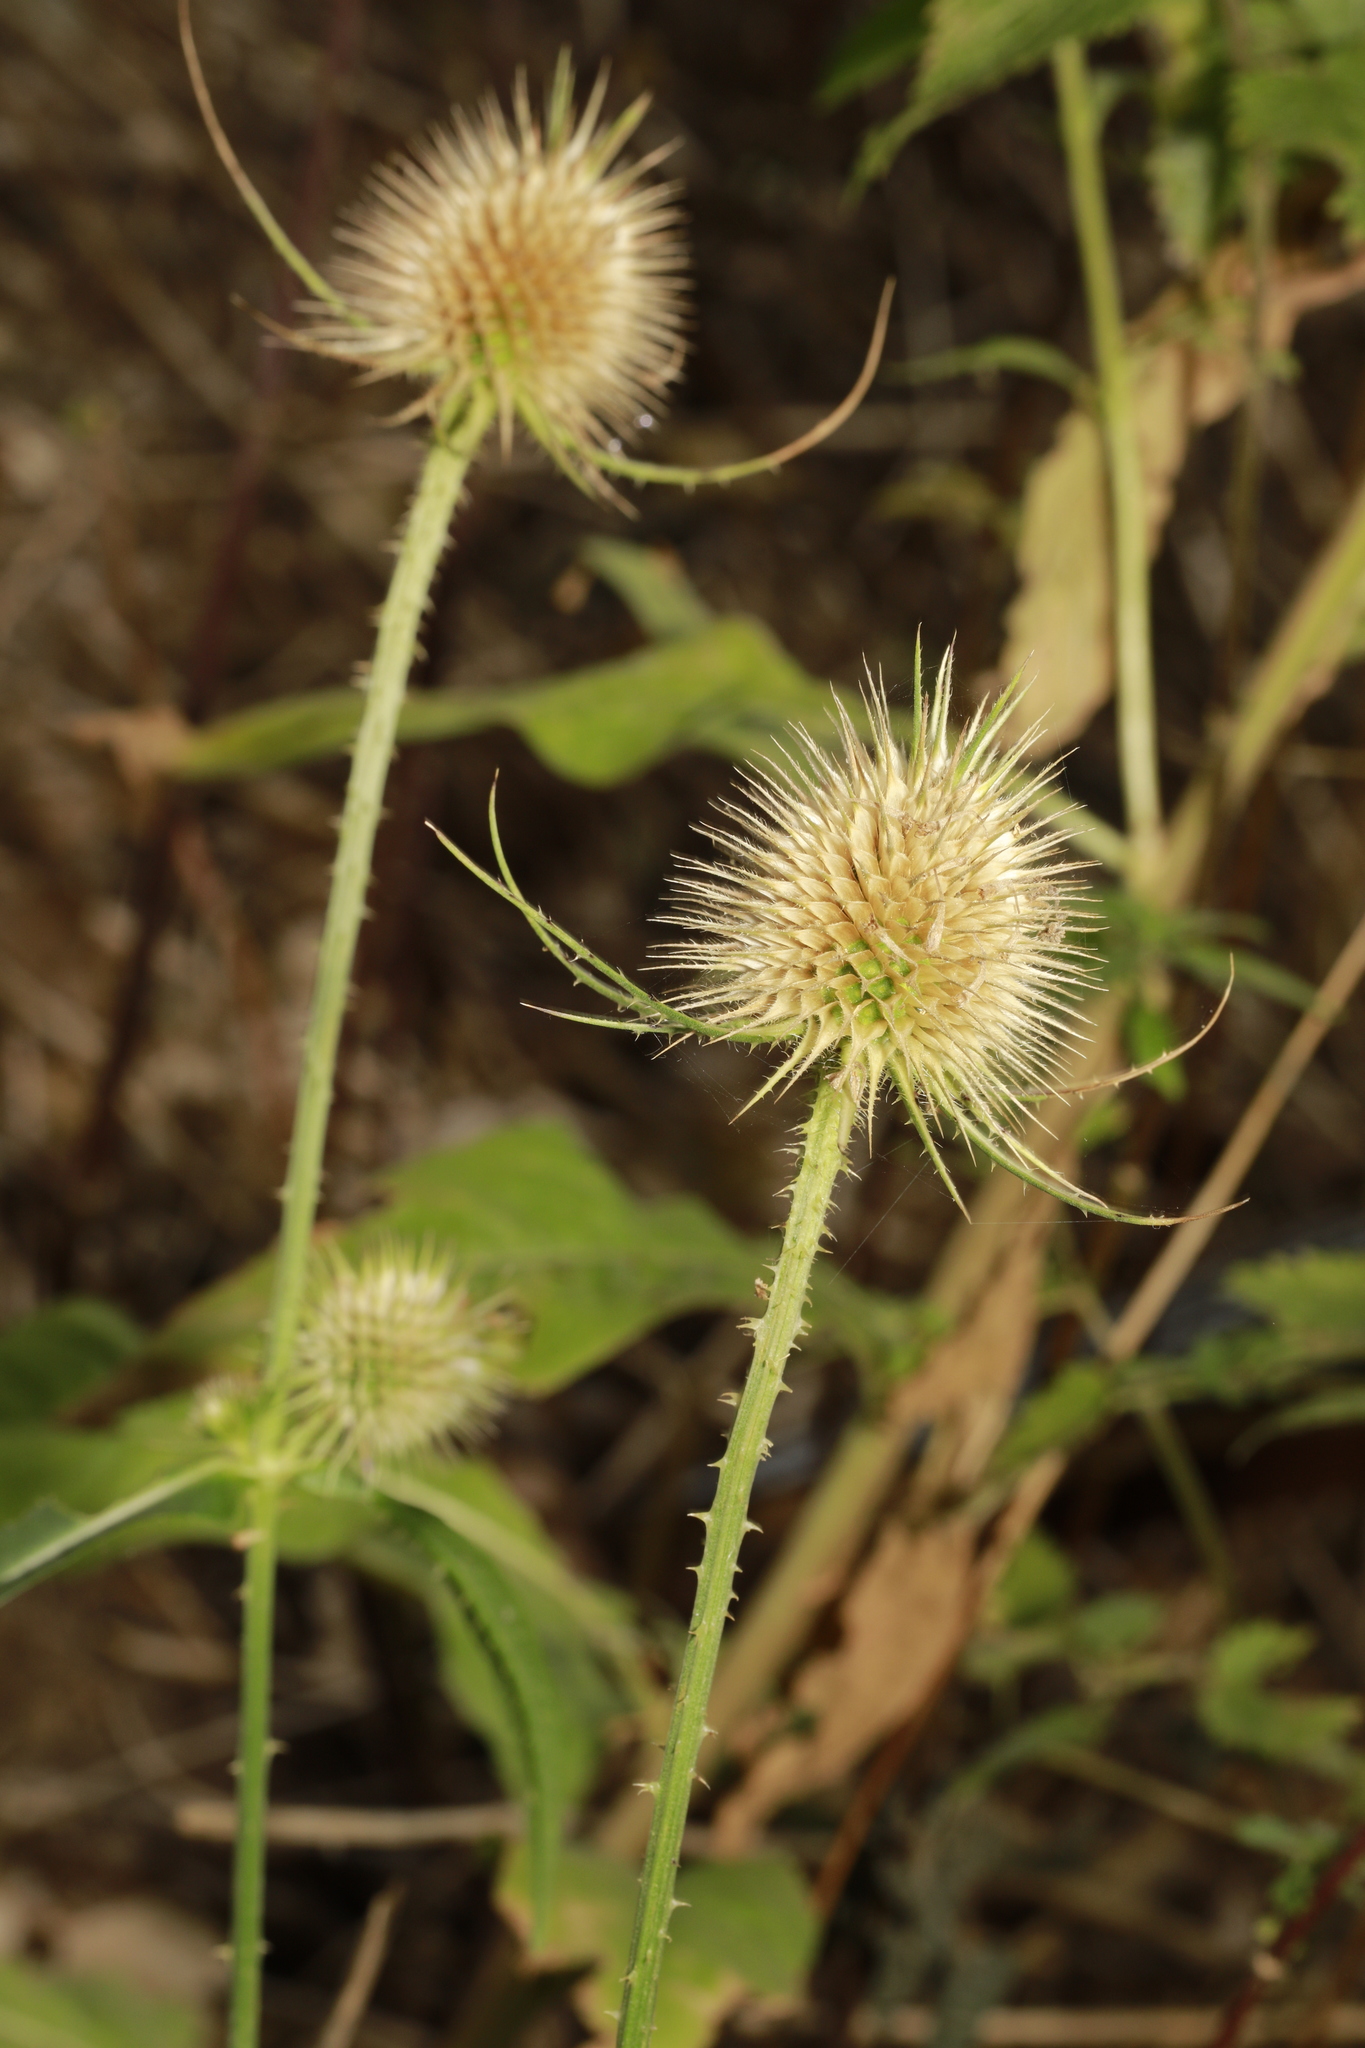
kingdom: Plantae
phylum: Tracheophyta
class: Magnoliopsida
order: Dipsacales
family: Caprifoliaceae
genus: Dipsacus
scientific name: Dipsacus fullonum
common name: Teasel
